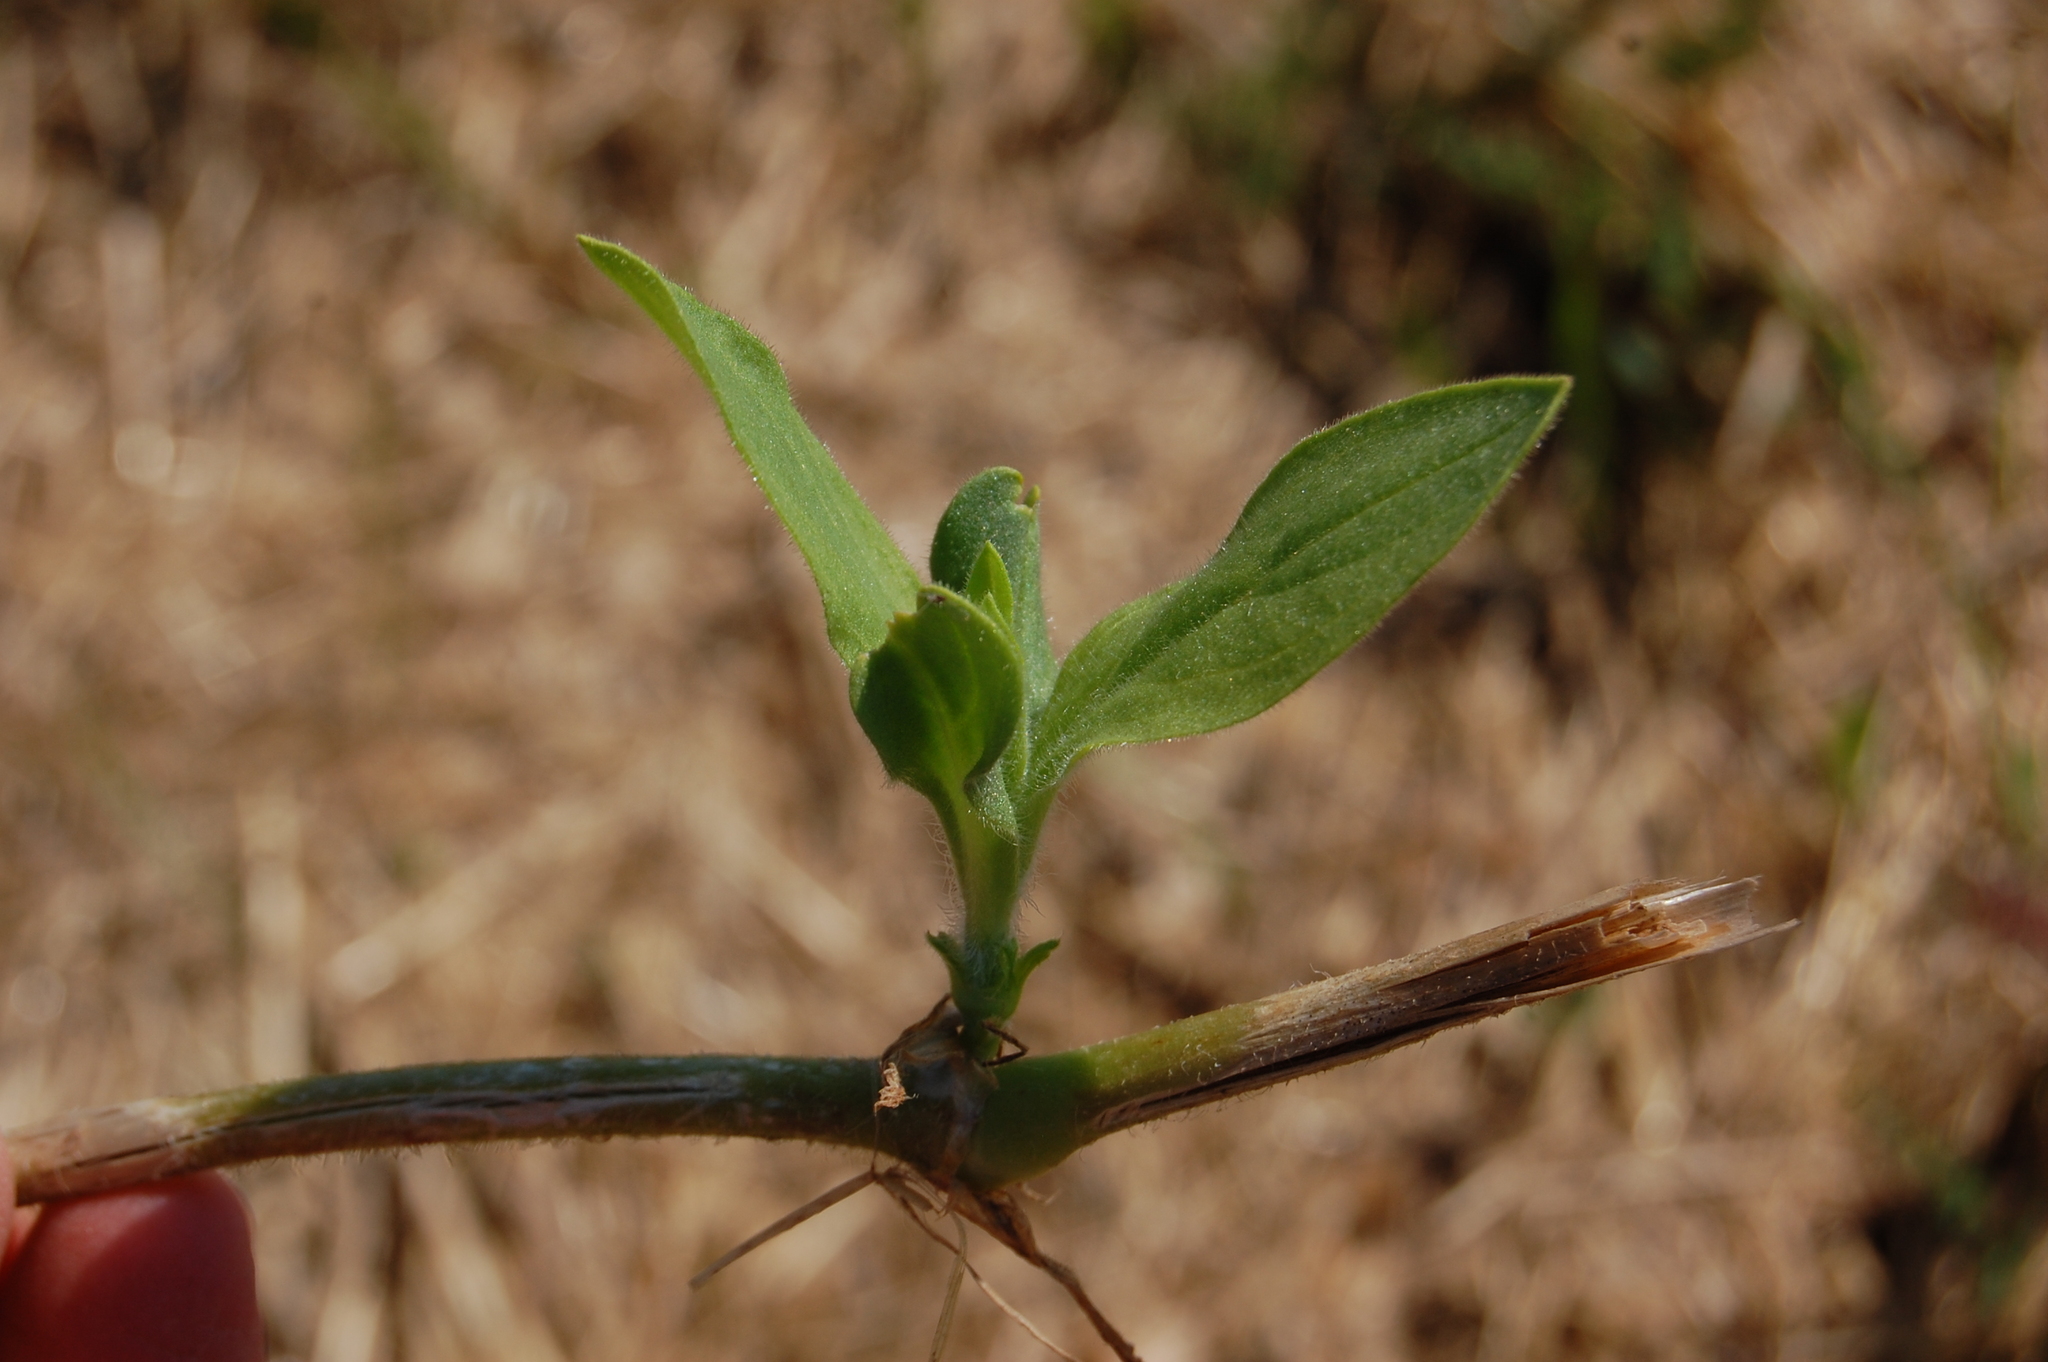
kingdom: Plantae
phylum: Tracheophyta
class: Magnoliopsida
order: Malpighiales
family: Linaceae
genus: Linum
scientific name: Linum bienne
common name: Pale flax
